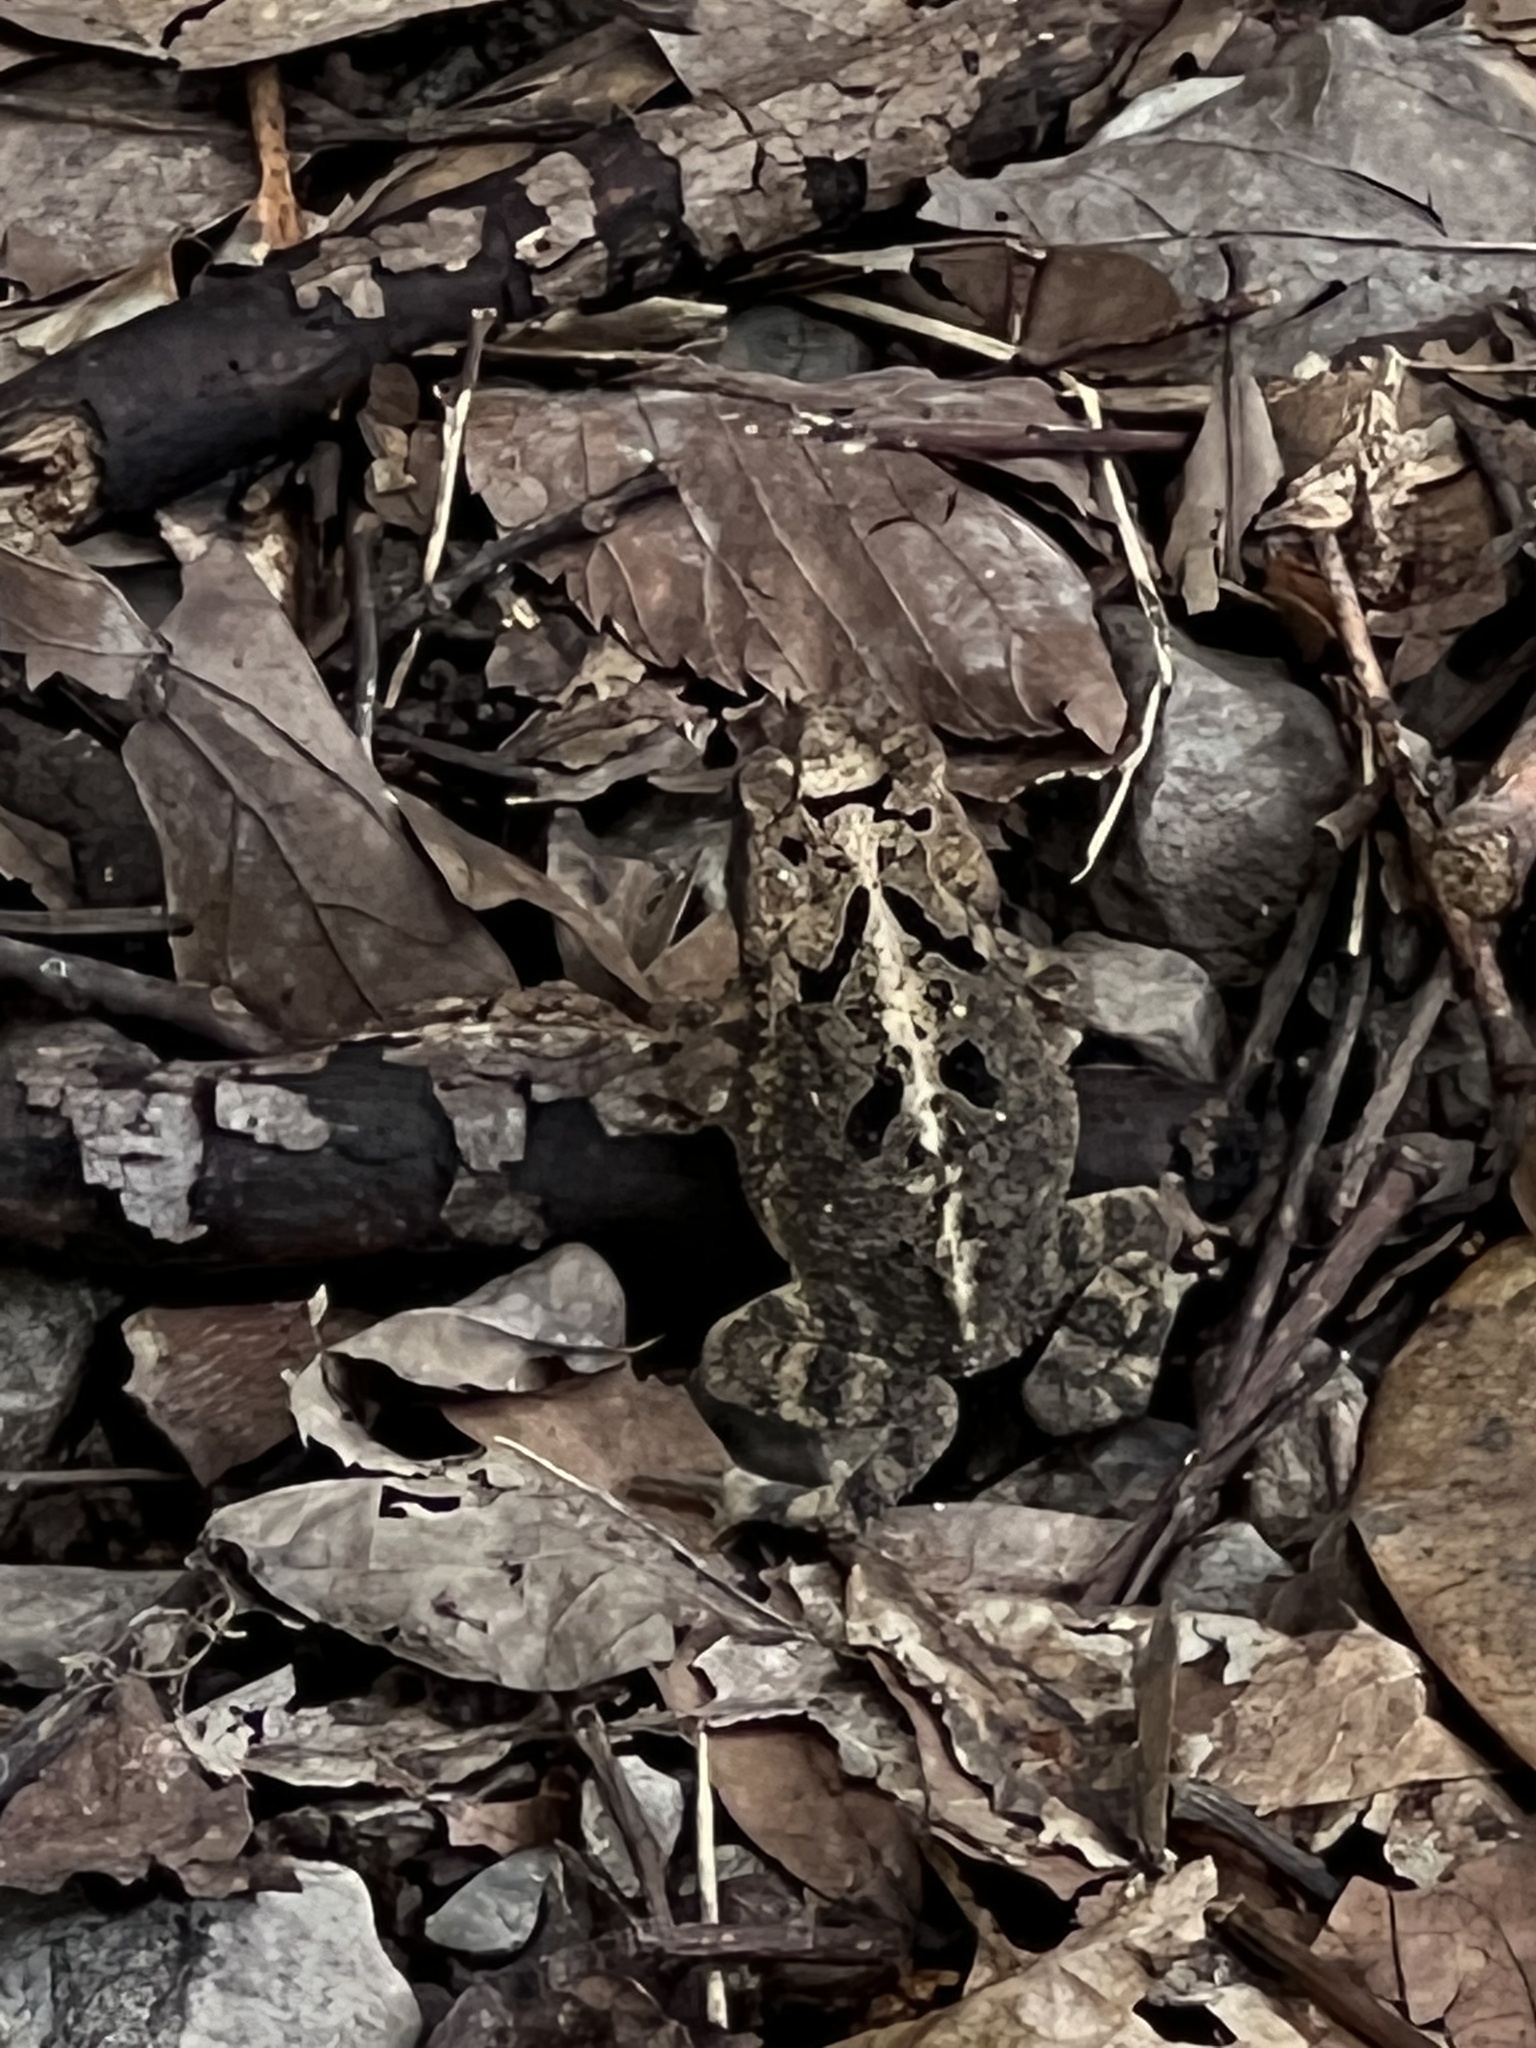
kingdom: Animalia
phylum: Chordata
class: Amphibia
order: Anura
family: Bufonidae
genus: Incilius
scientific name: Incilius nebulifer
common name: Gulf coast toad
